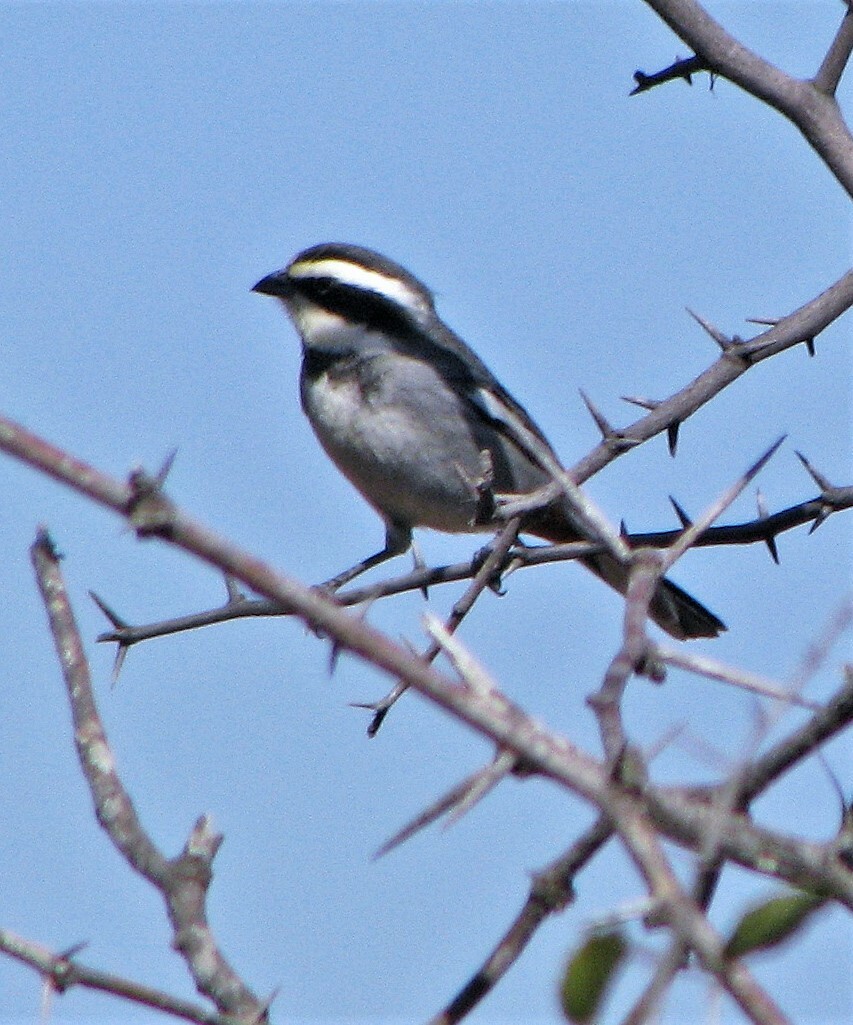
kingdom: Animalia
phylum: Chordata
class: Aves
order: Passeriformes
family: Thraupidae
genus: Microspingus
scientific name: Microspingus torquatus
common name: Ringed warbling-finch
